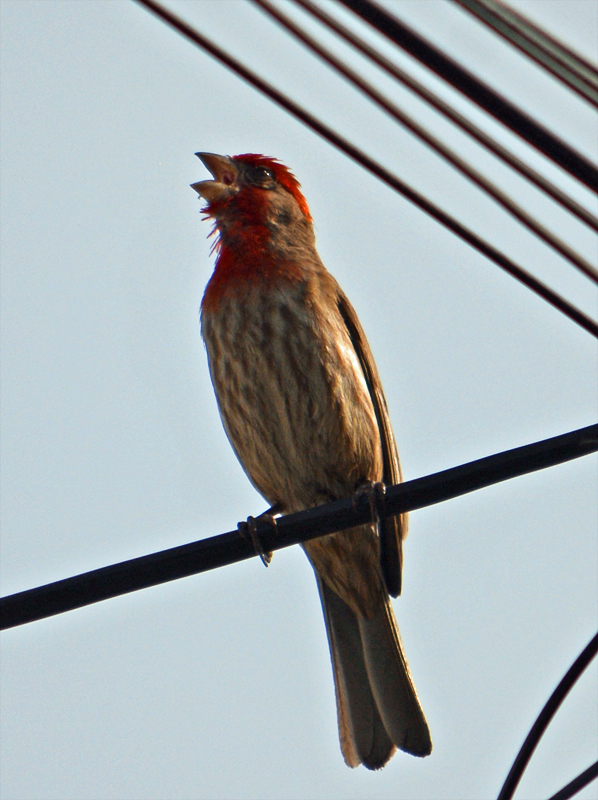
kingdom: Animalia
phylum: Chordata
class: Aves
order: Passeriformes
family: Fringillidae
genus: Haemorhous
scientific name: Haemorhous mexicanus
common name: House finch
